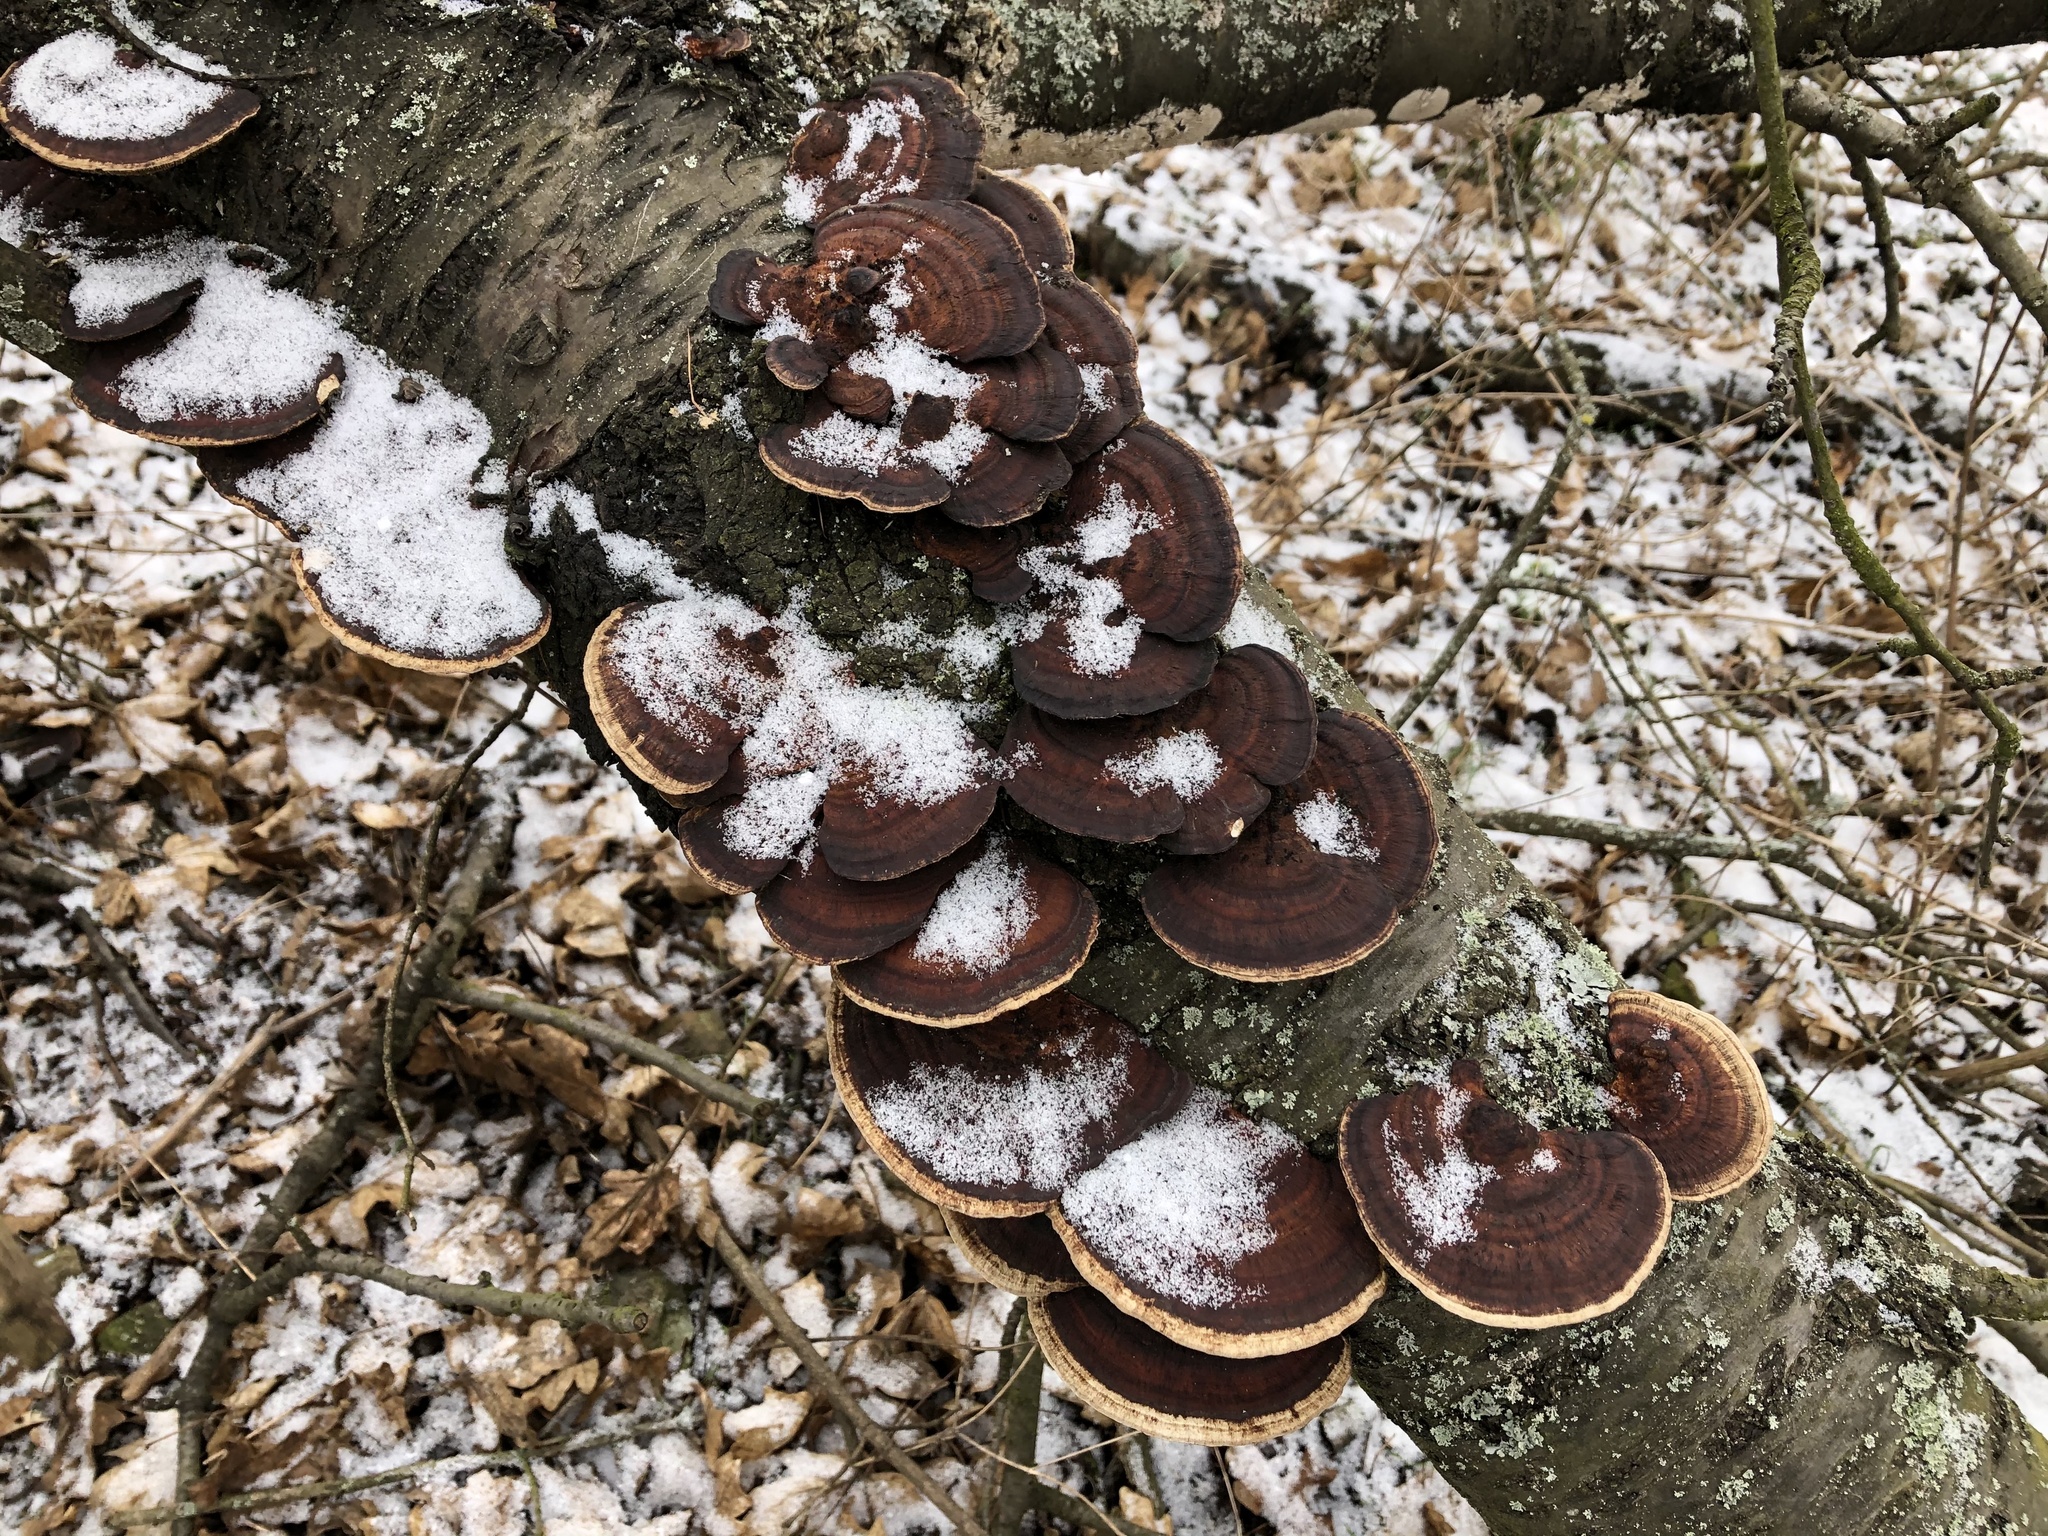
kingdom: Fungi
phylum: Basidiomycota
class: Agaricomycetes
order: Polyporales
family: Polyporaceae
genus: Daedaleopsis
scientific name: Daedaleopsis tricolor
